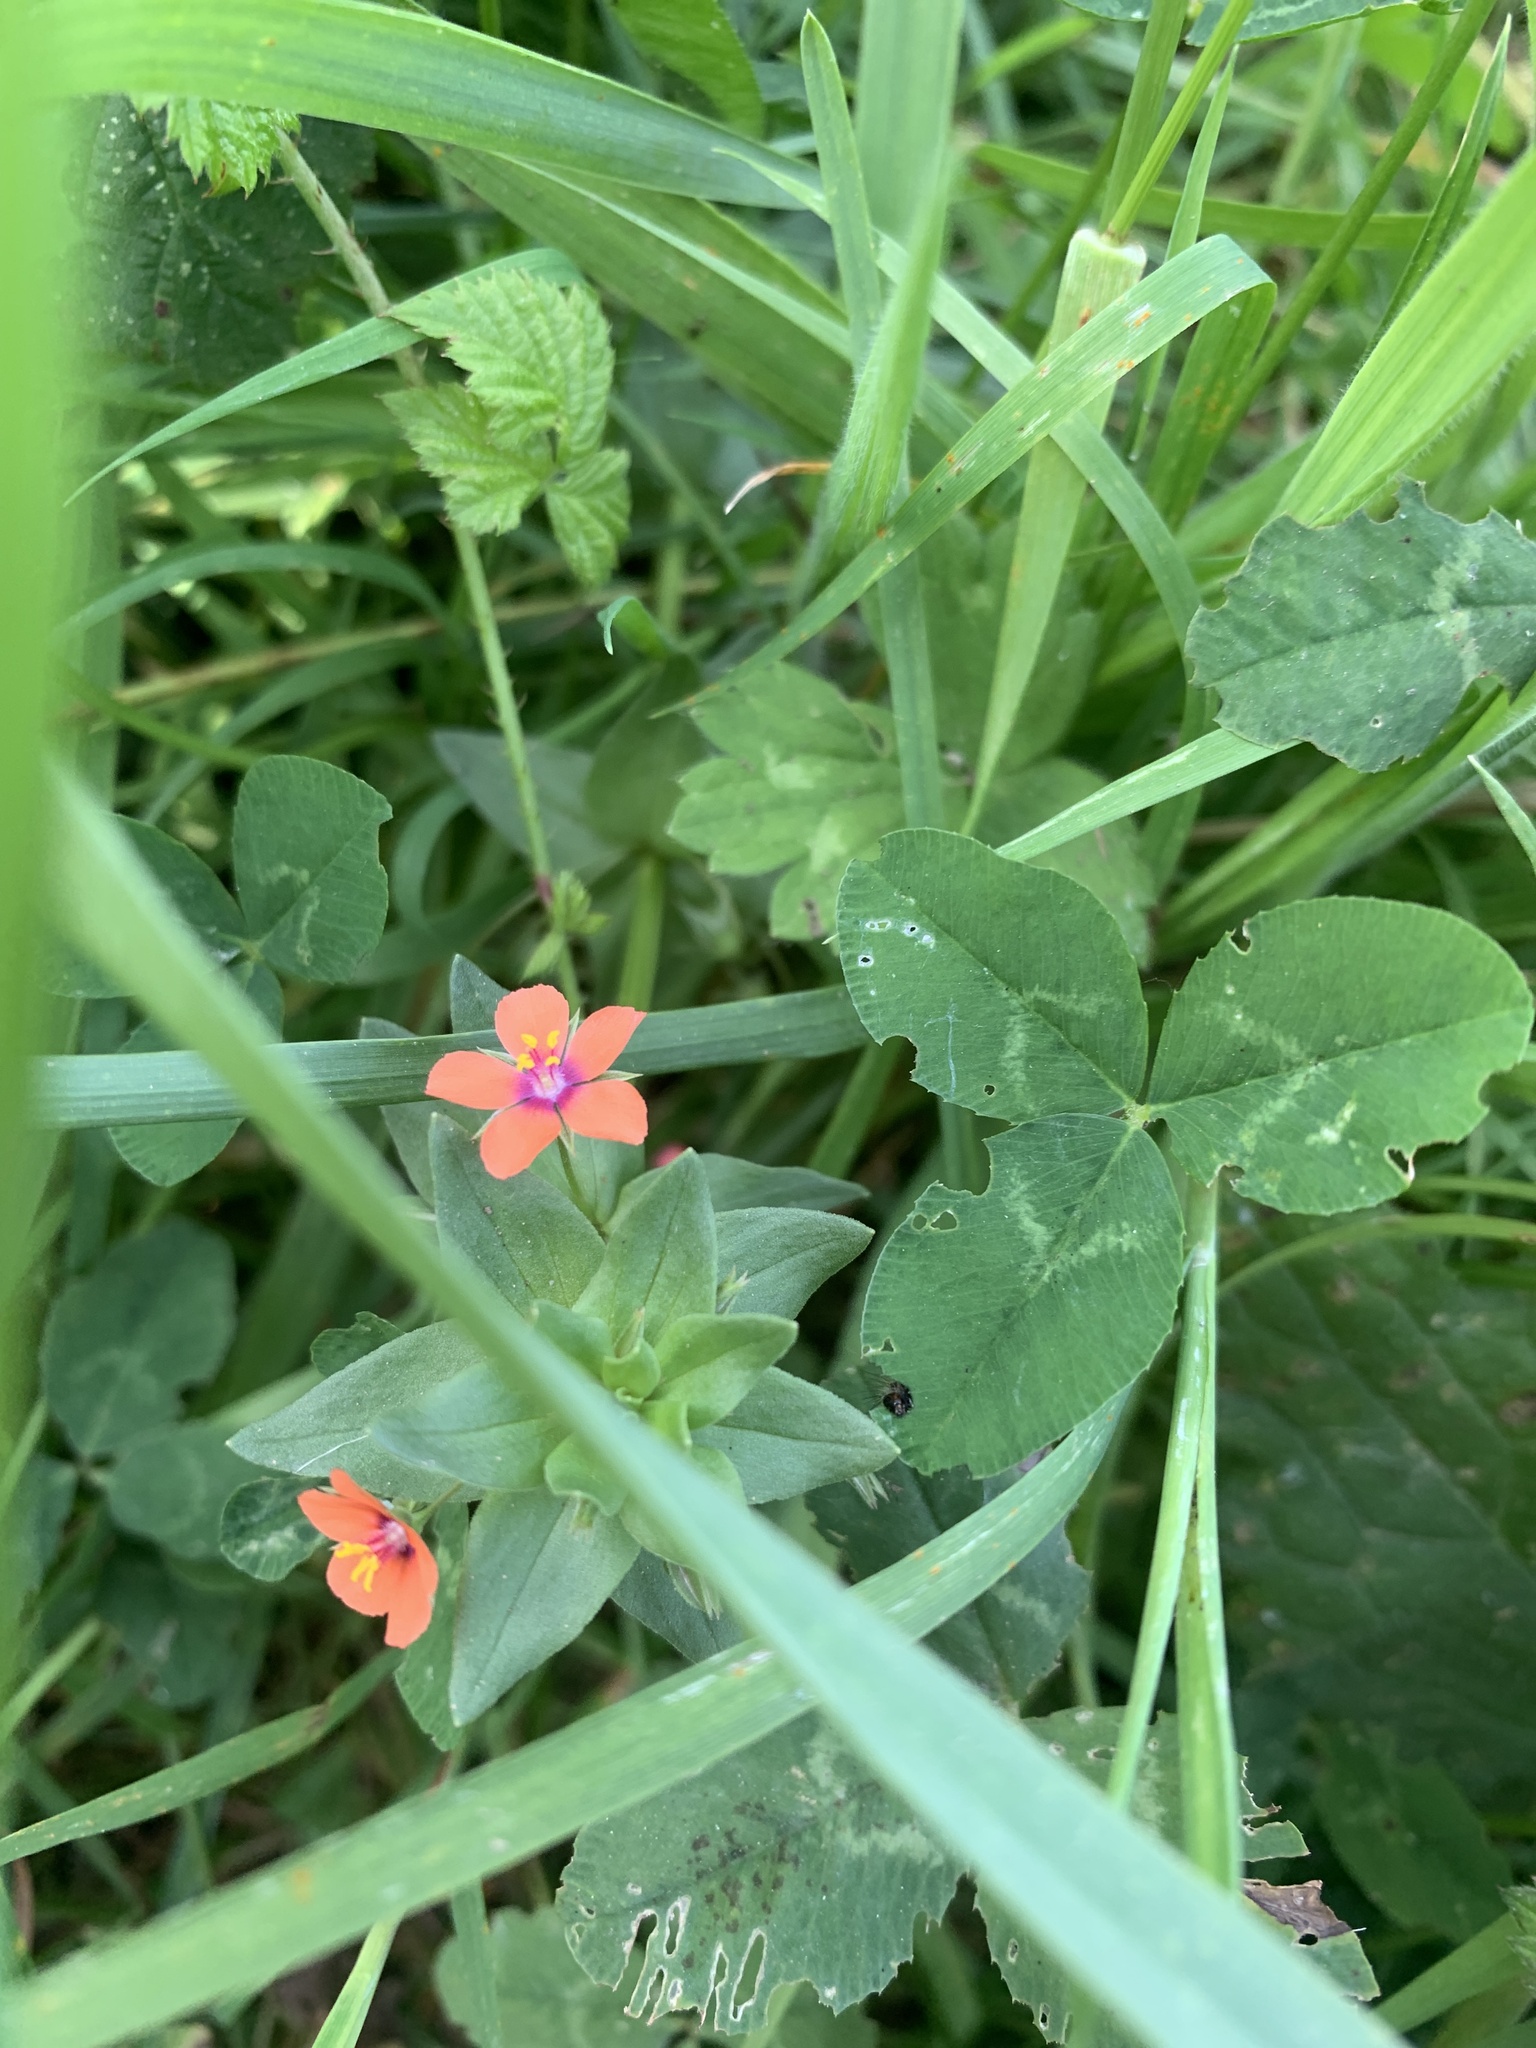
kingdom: Plantae
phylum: Tracheophyta
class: Magnoliopsida
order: Ericales
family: Primulaceae
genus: Lysimachia
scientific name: Lysimachia arvensis
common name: Scarlet pimpernel
